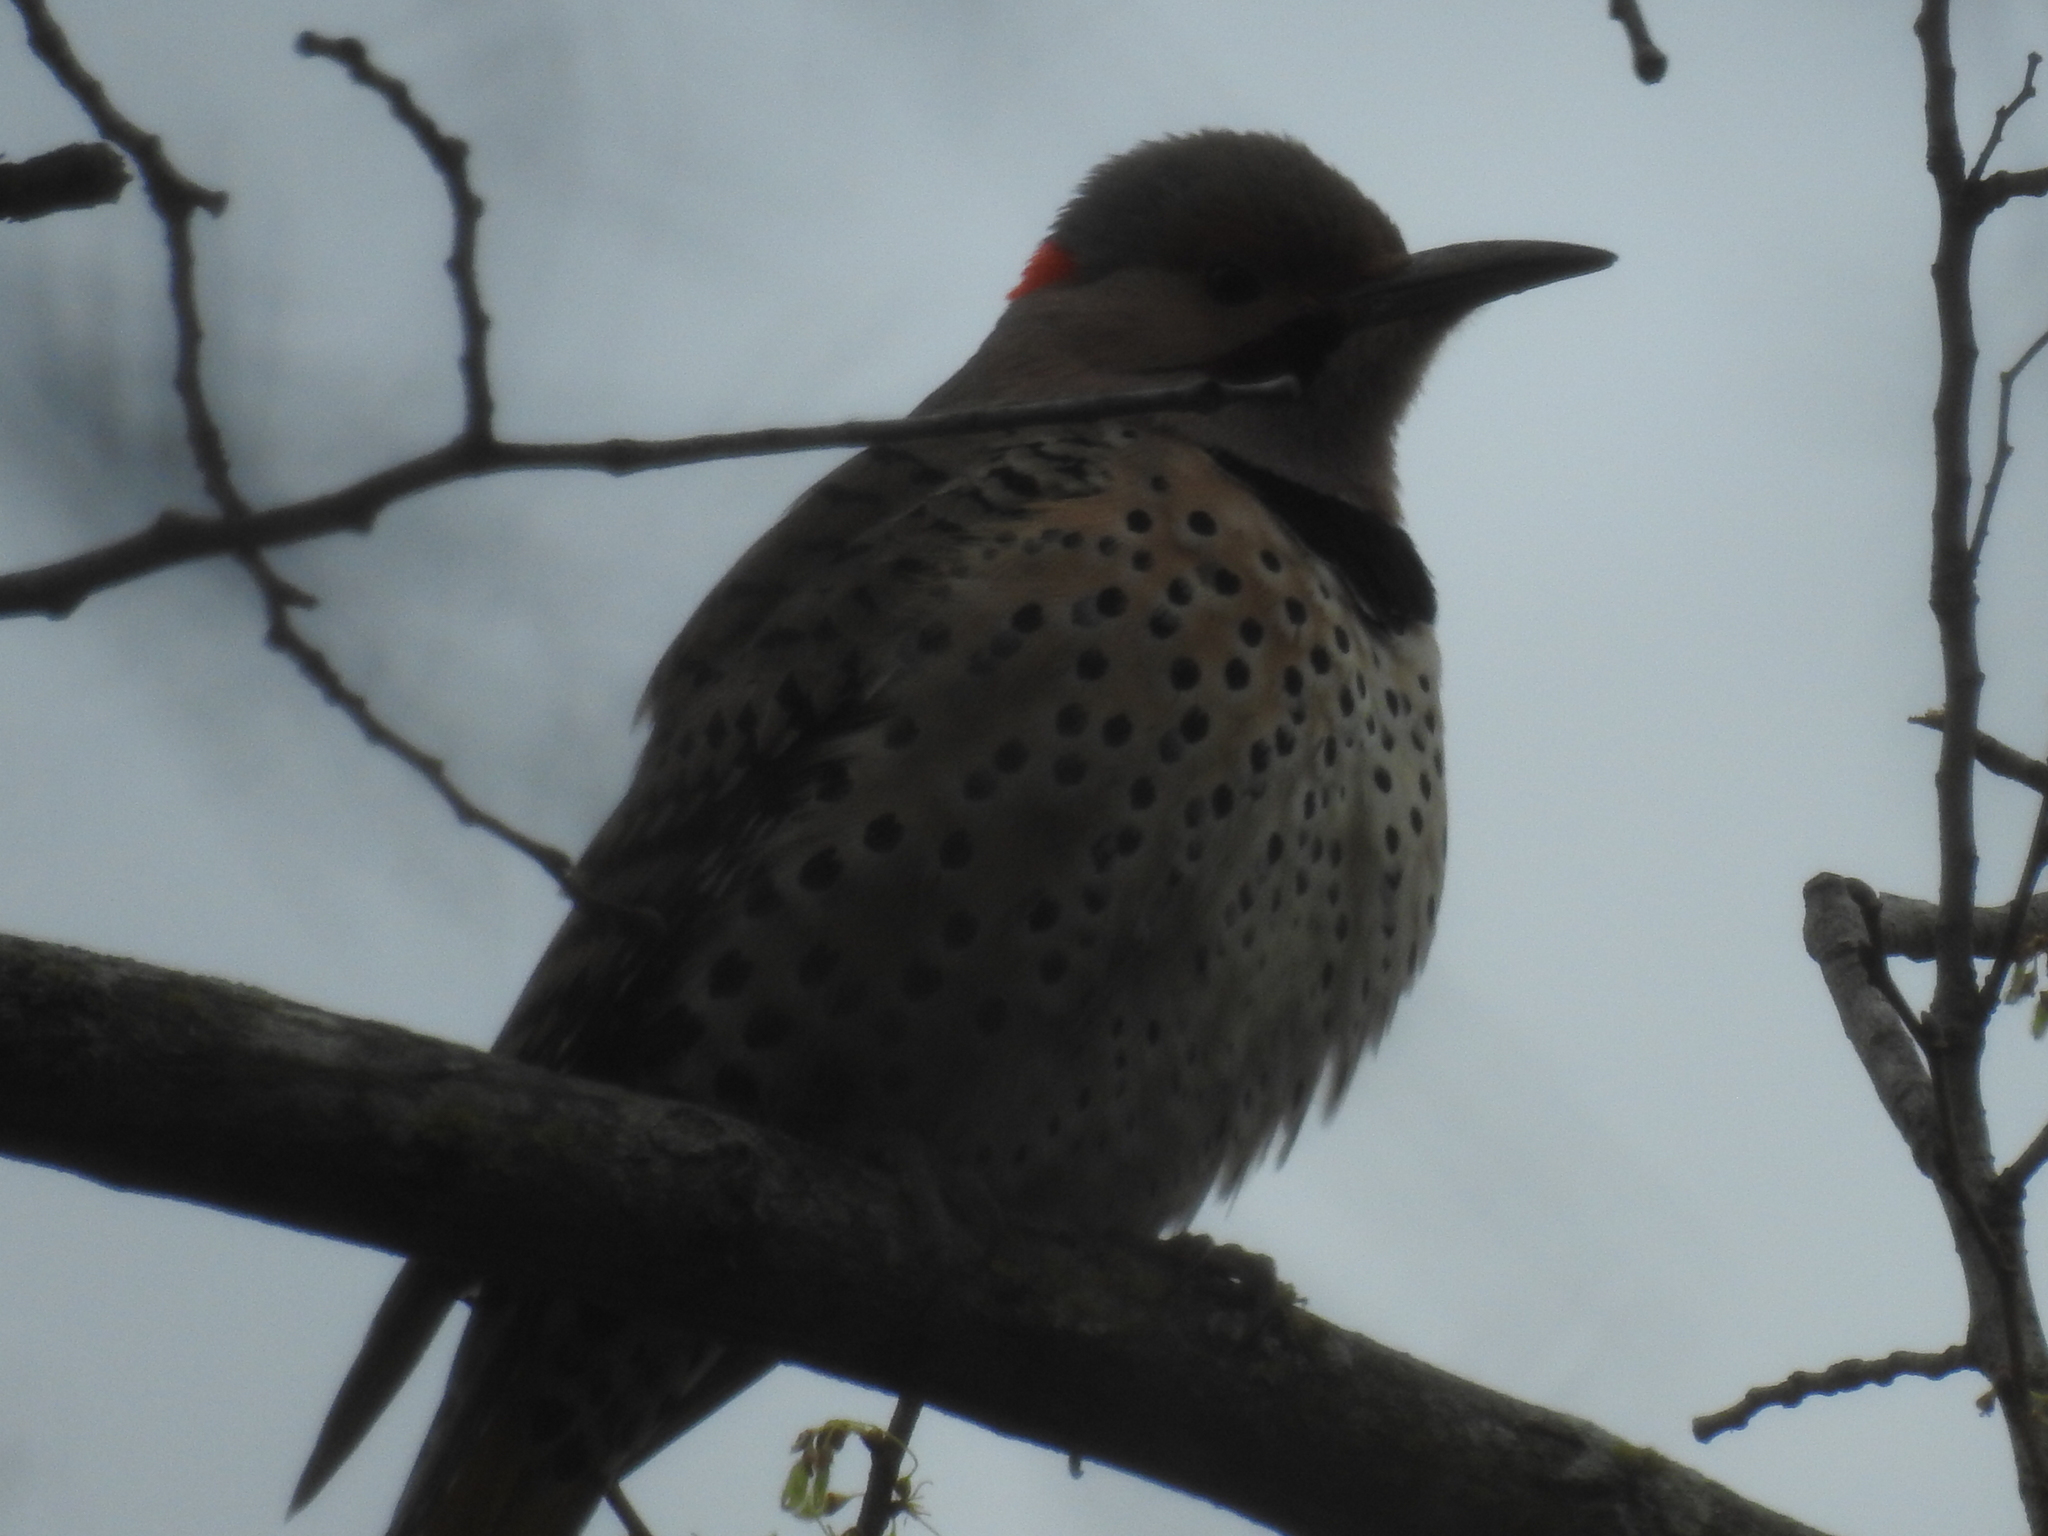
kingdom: Animalia
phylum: Chordata
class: Aves
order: Piciformes
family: Picidae
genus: Colaptes
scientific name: Colaptes auratus
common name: Northern flicker
